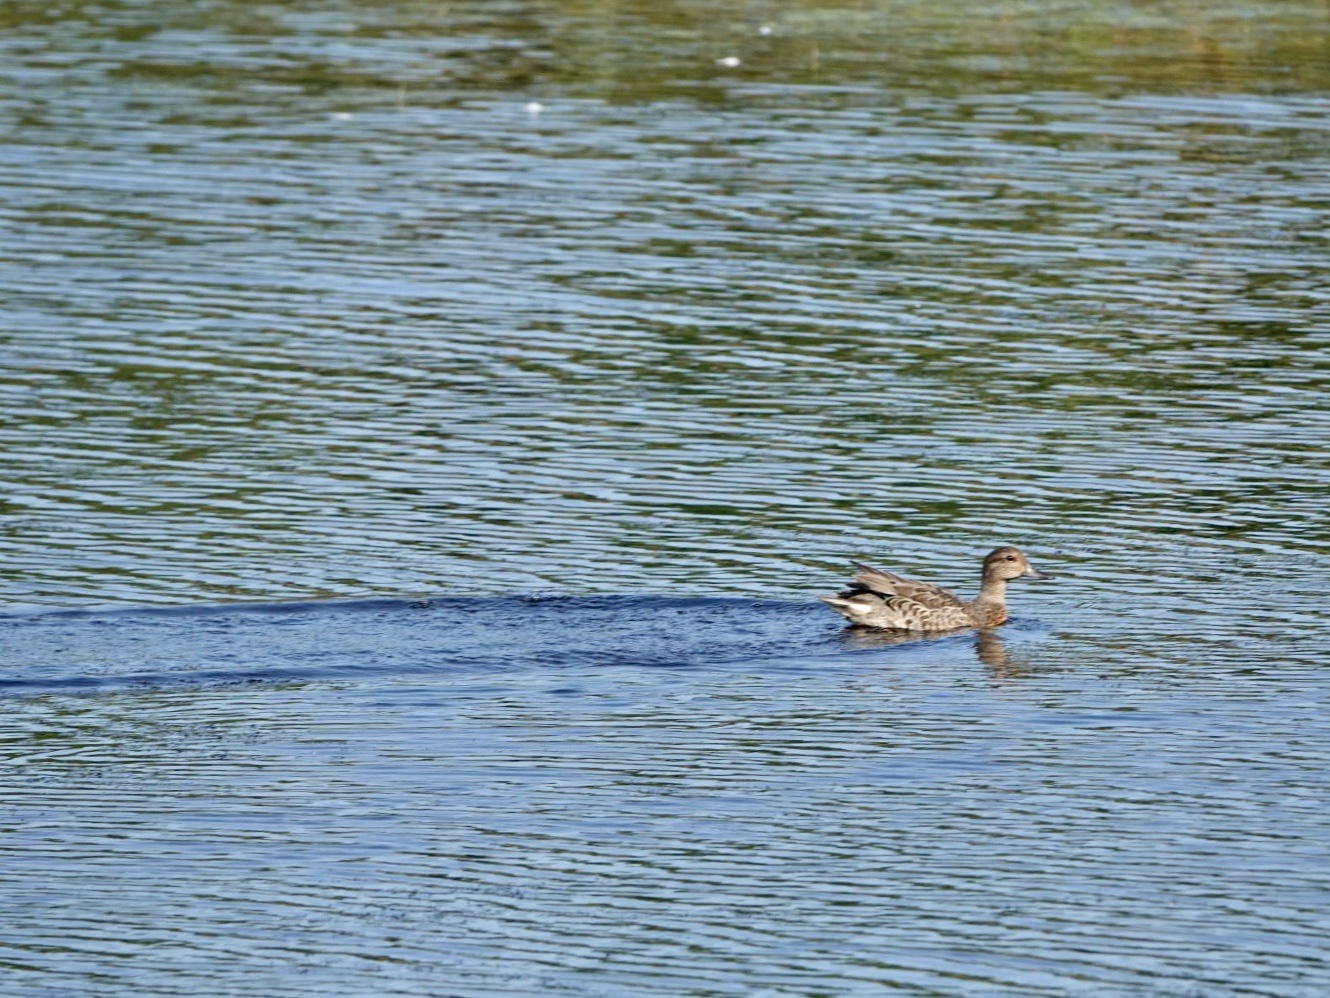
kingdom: Animalia
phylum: Chordata
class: Aves
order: Anseriformes
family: Anatidae
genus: Anas
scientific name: Anas crecca
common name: Eurasian teal
